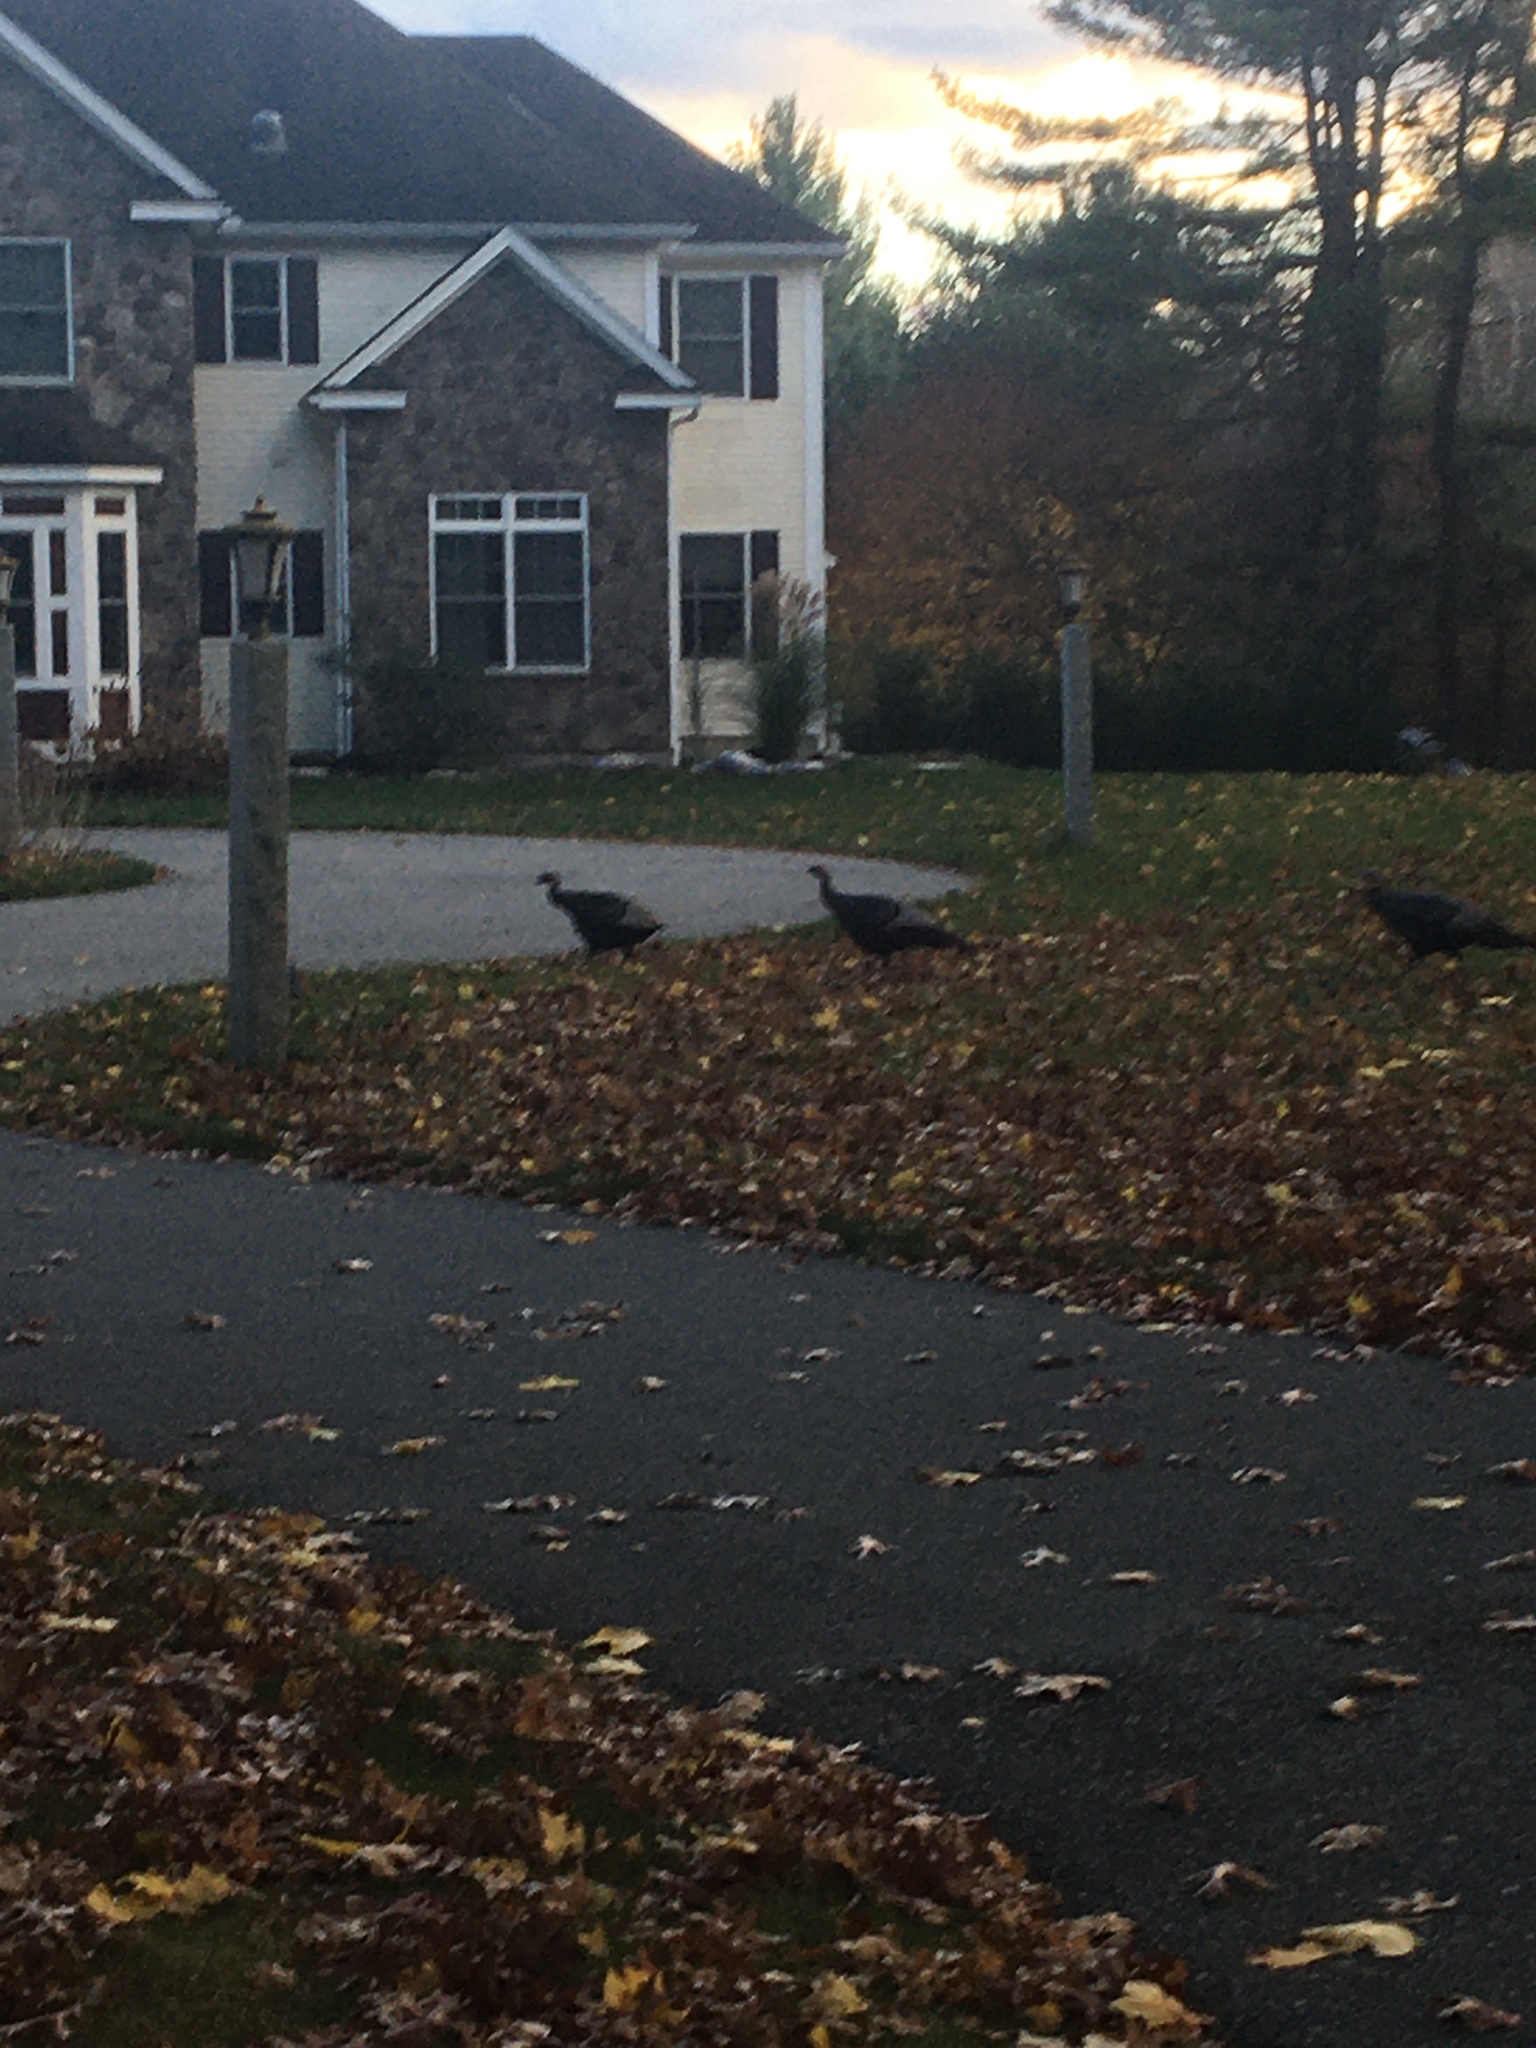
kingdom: Animalia
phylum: Chordata
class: Aves
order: Galliformes
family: Phasianidae
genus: Meleagris
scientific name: Meleagris gallopavo
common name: Wild turkey
